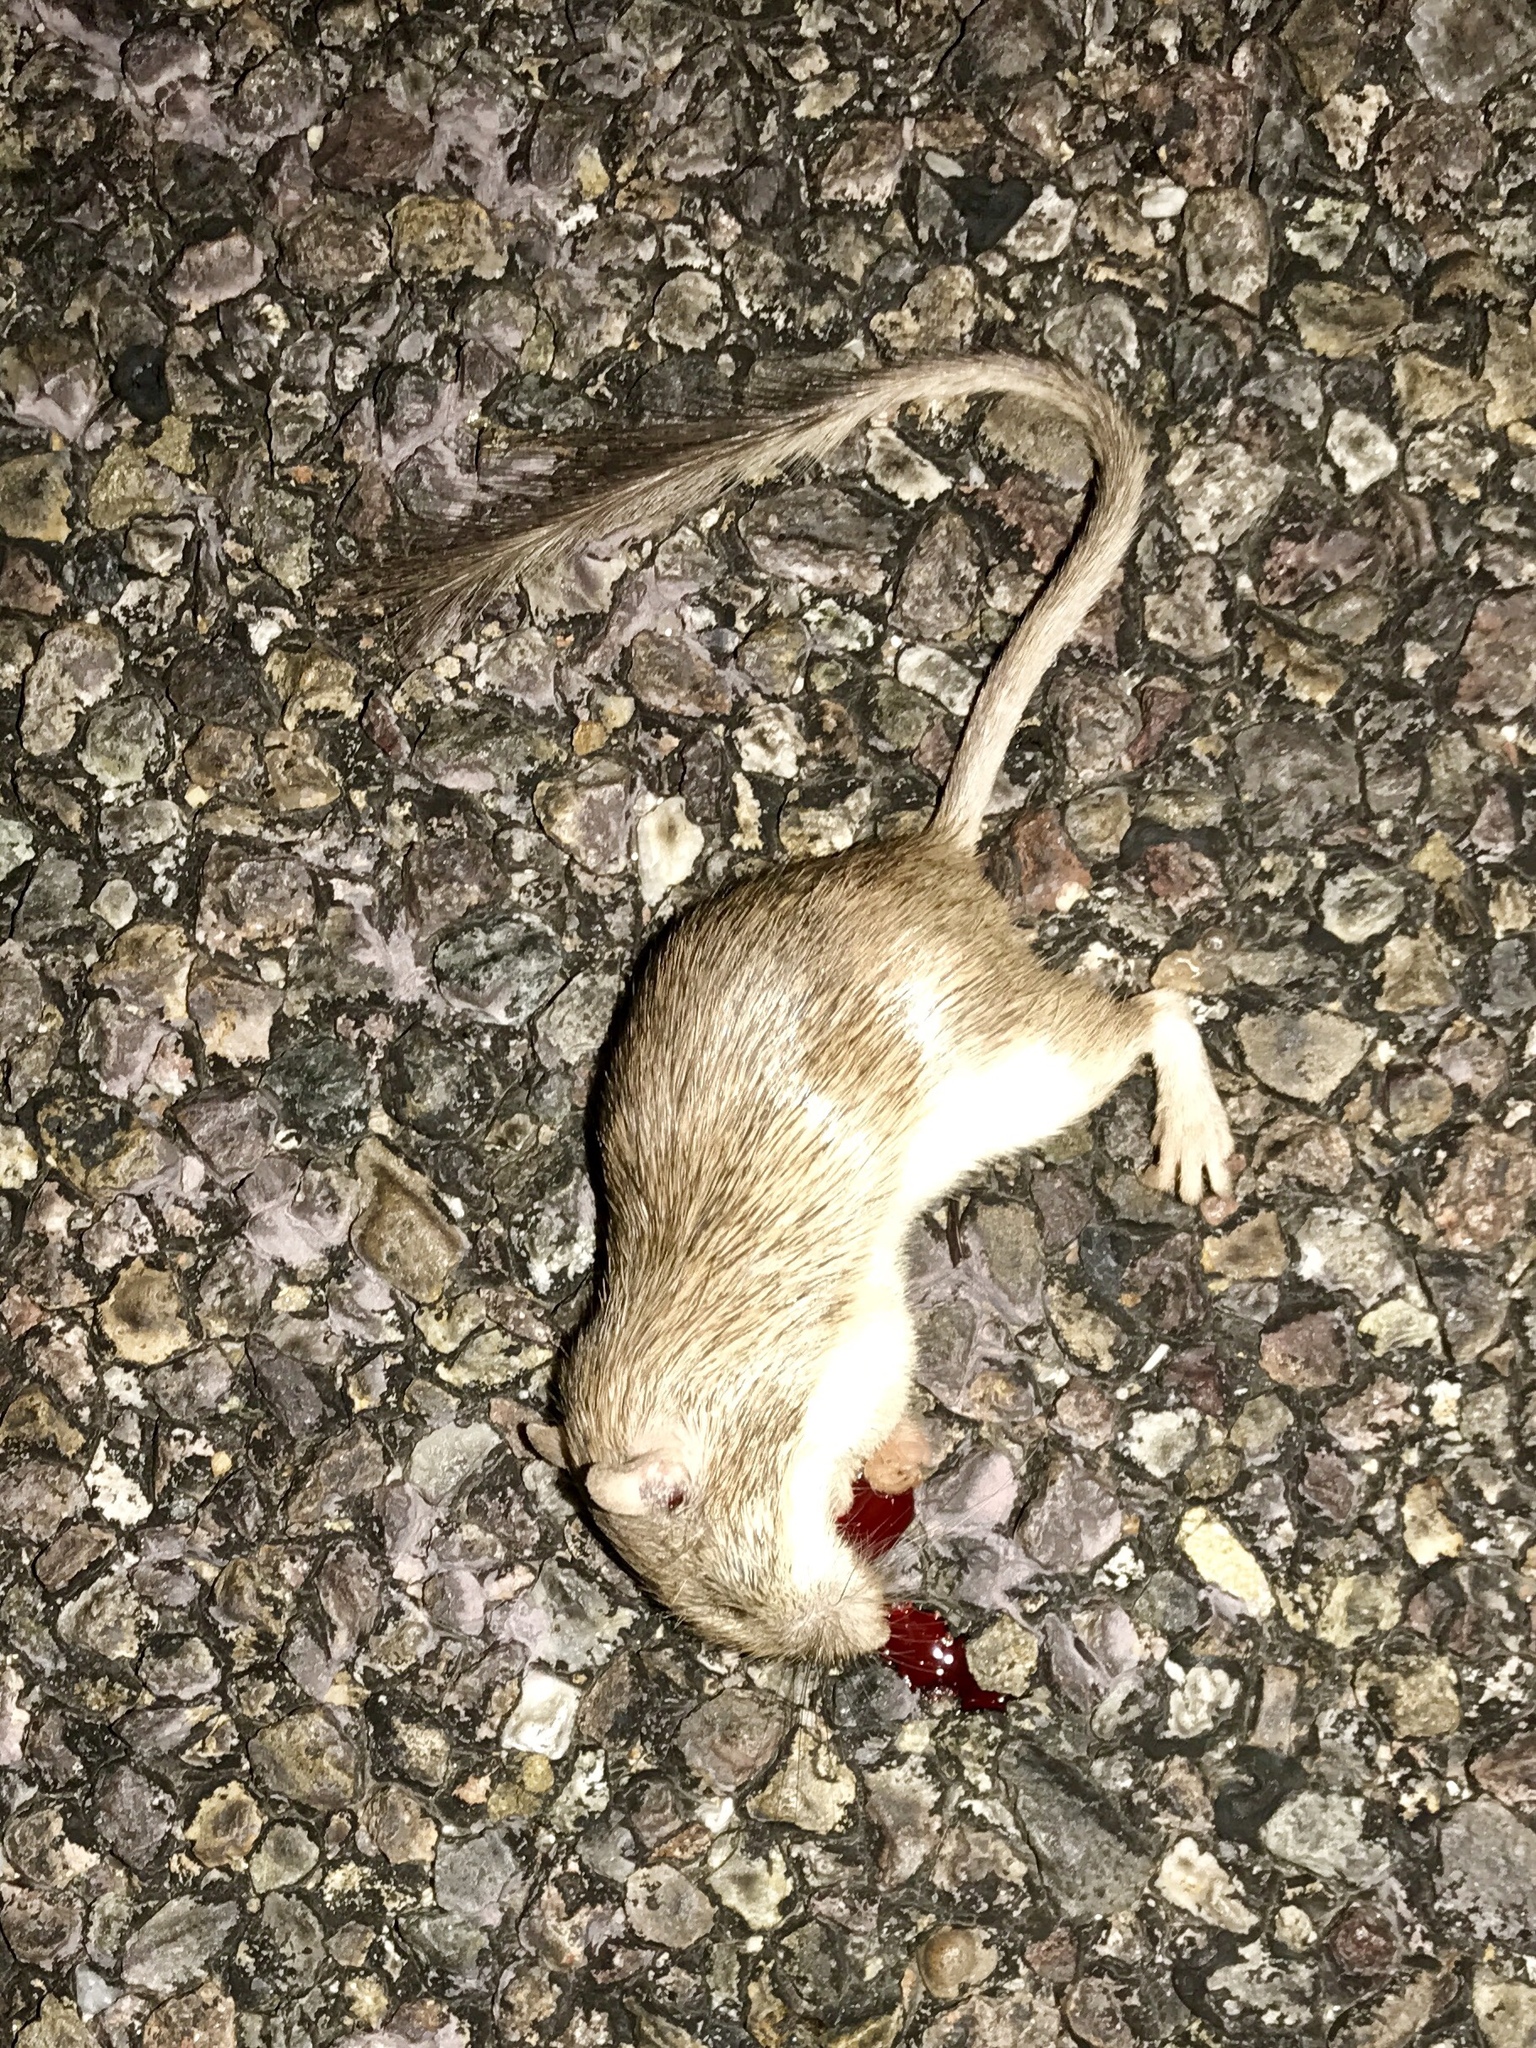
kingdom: Animalia
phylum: Chordata
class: Mammalia
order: Rodentia
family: Heteromyidae
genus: Chaetodipus
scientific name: Chaetodipus baileyi
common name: Bailey's pocket mouse
